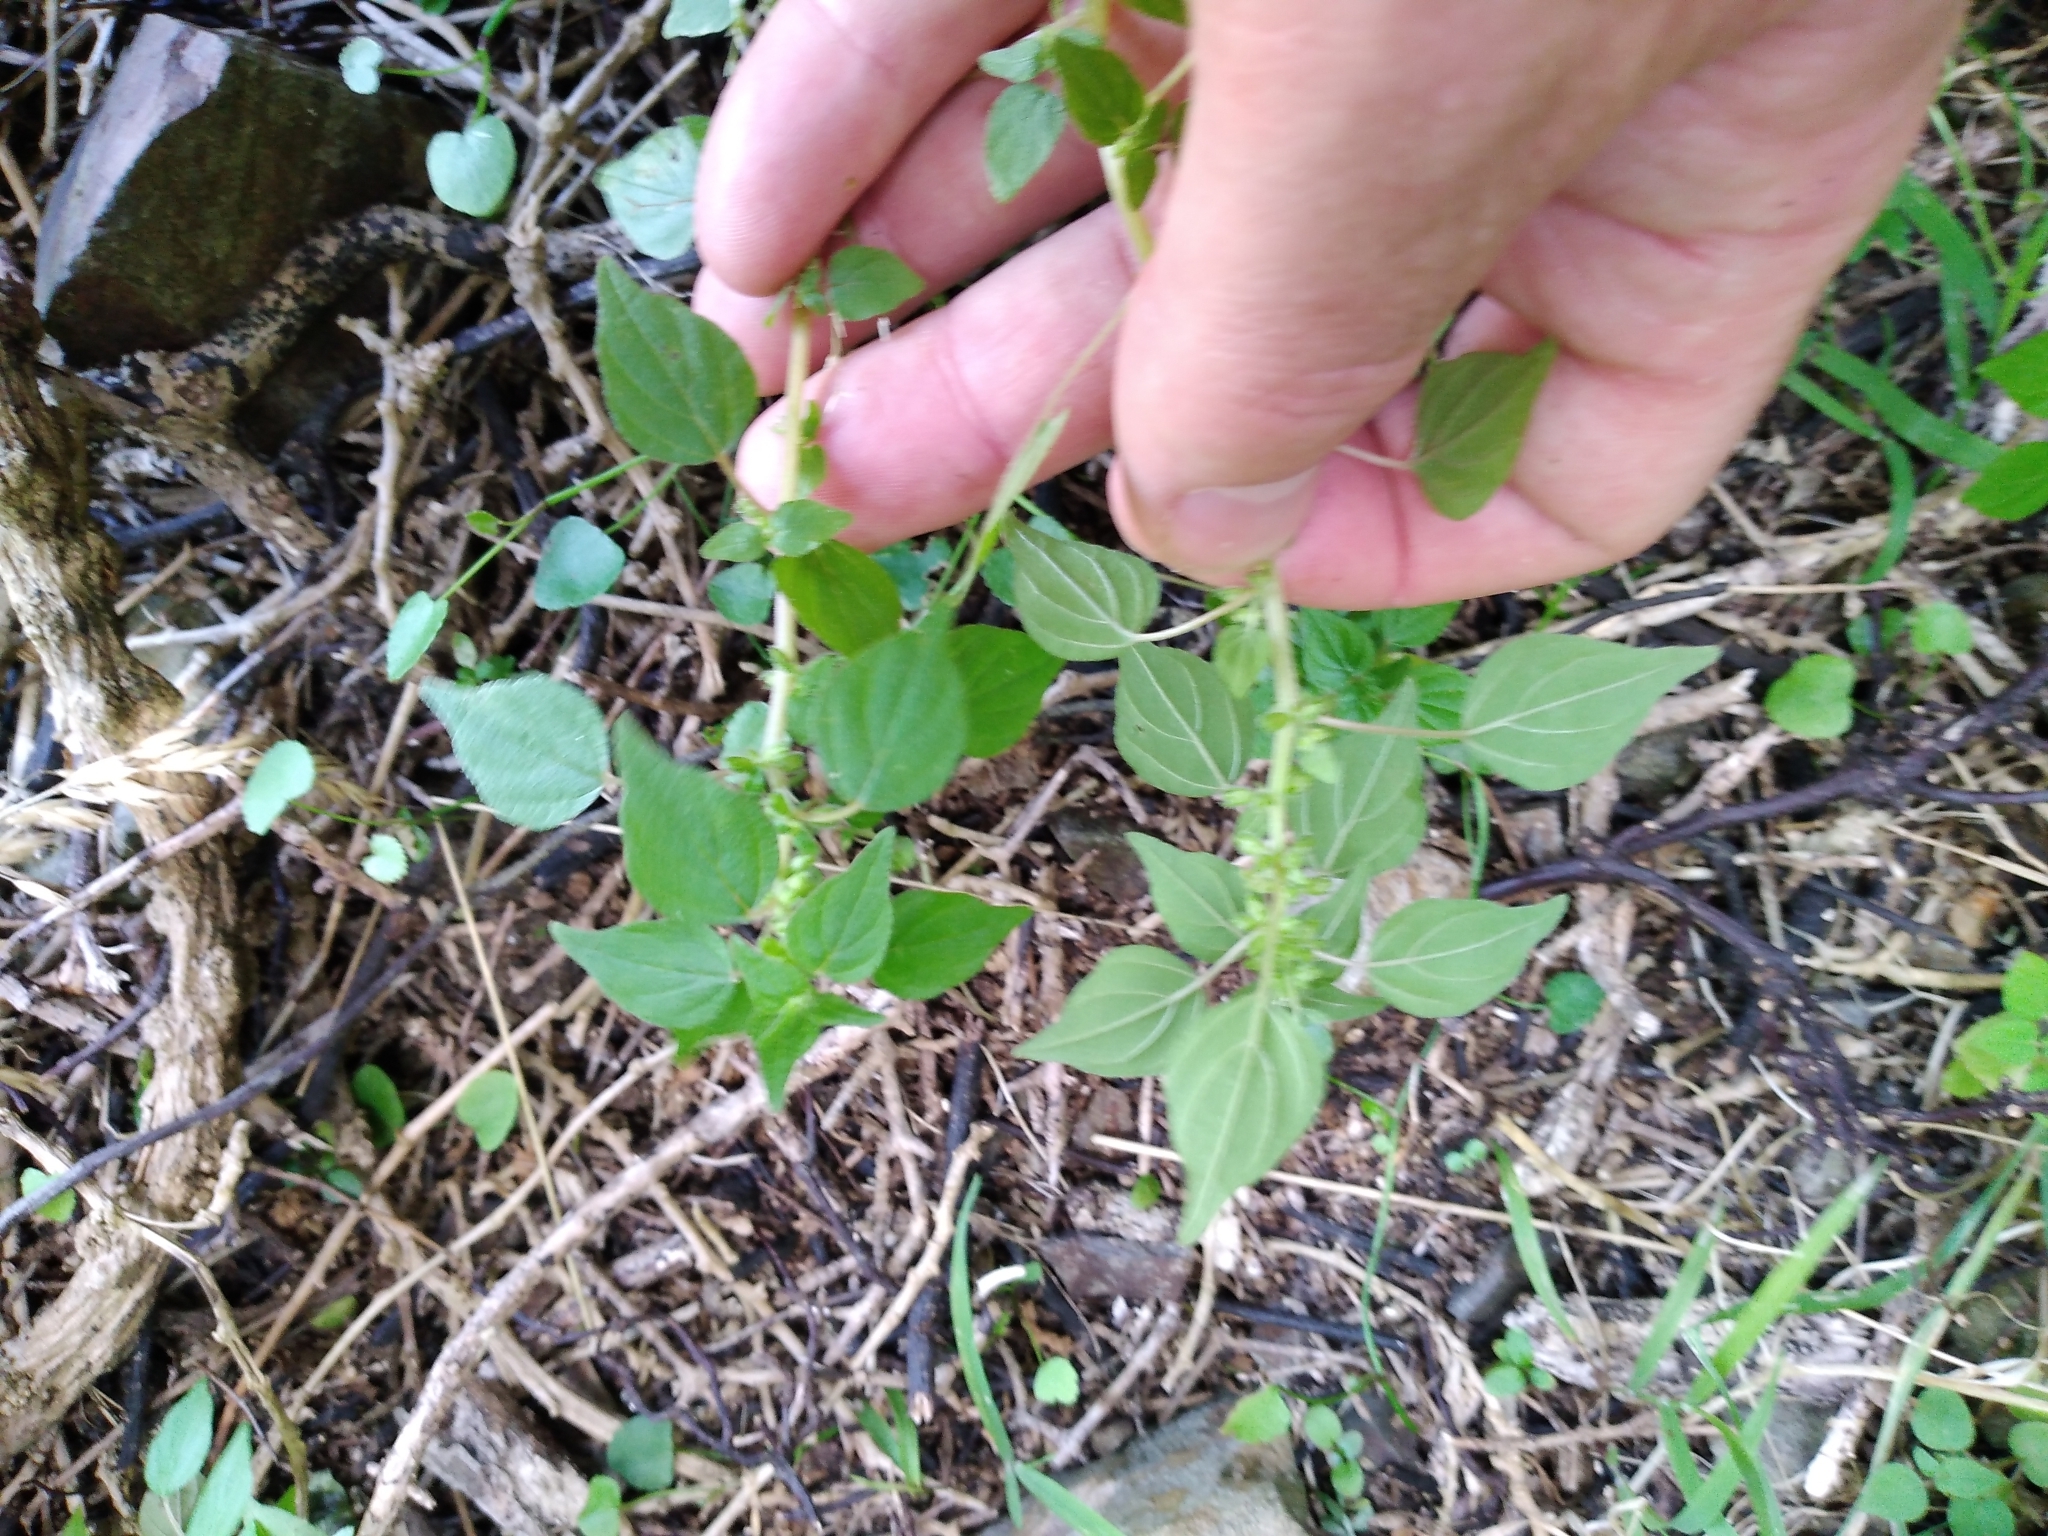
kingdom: Plantae
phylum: Tracheophyta
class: Magnoliopsida
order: Rosales
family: Urticaceae
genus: Parietaria
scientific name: Parietaria debilis
